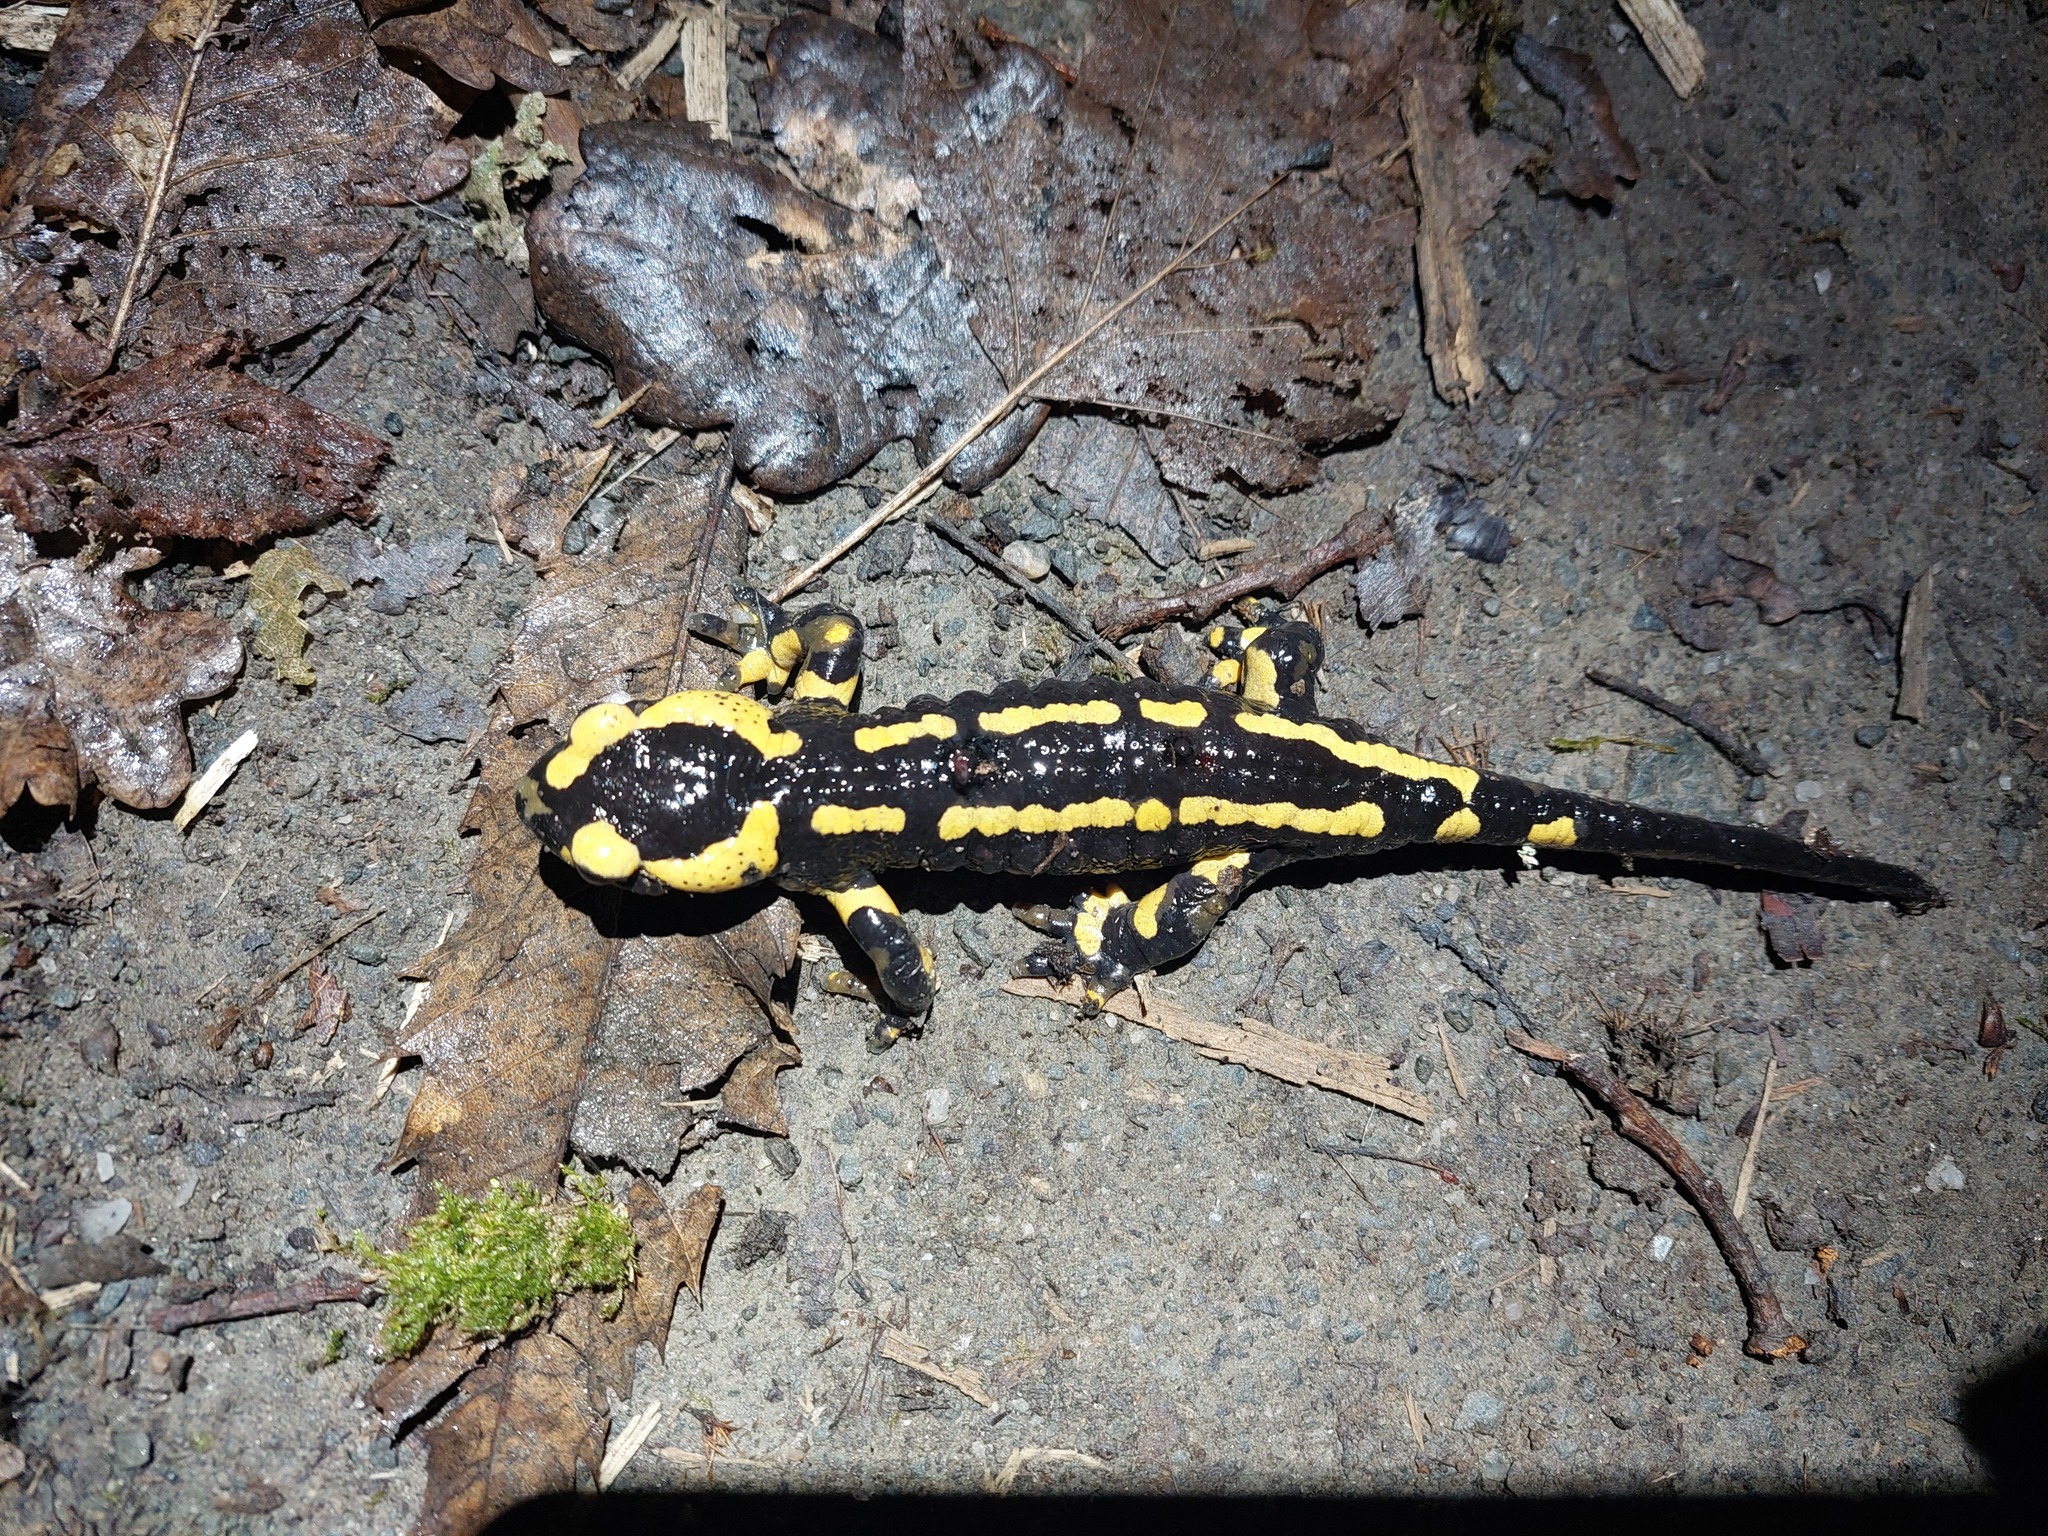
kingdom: Animalia
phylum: Chordata
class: Amphibia
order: Caudata
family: Salamandridae
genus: Salamandra
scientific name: Salamandra salamandra
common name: Fire salamander
